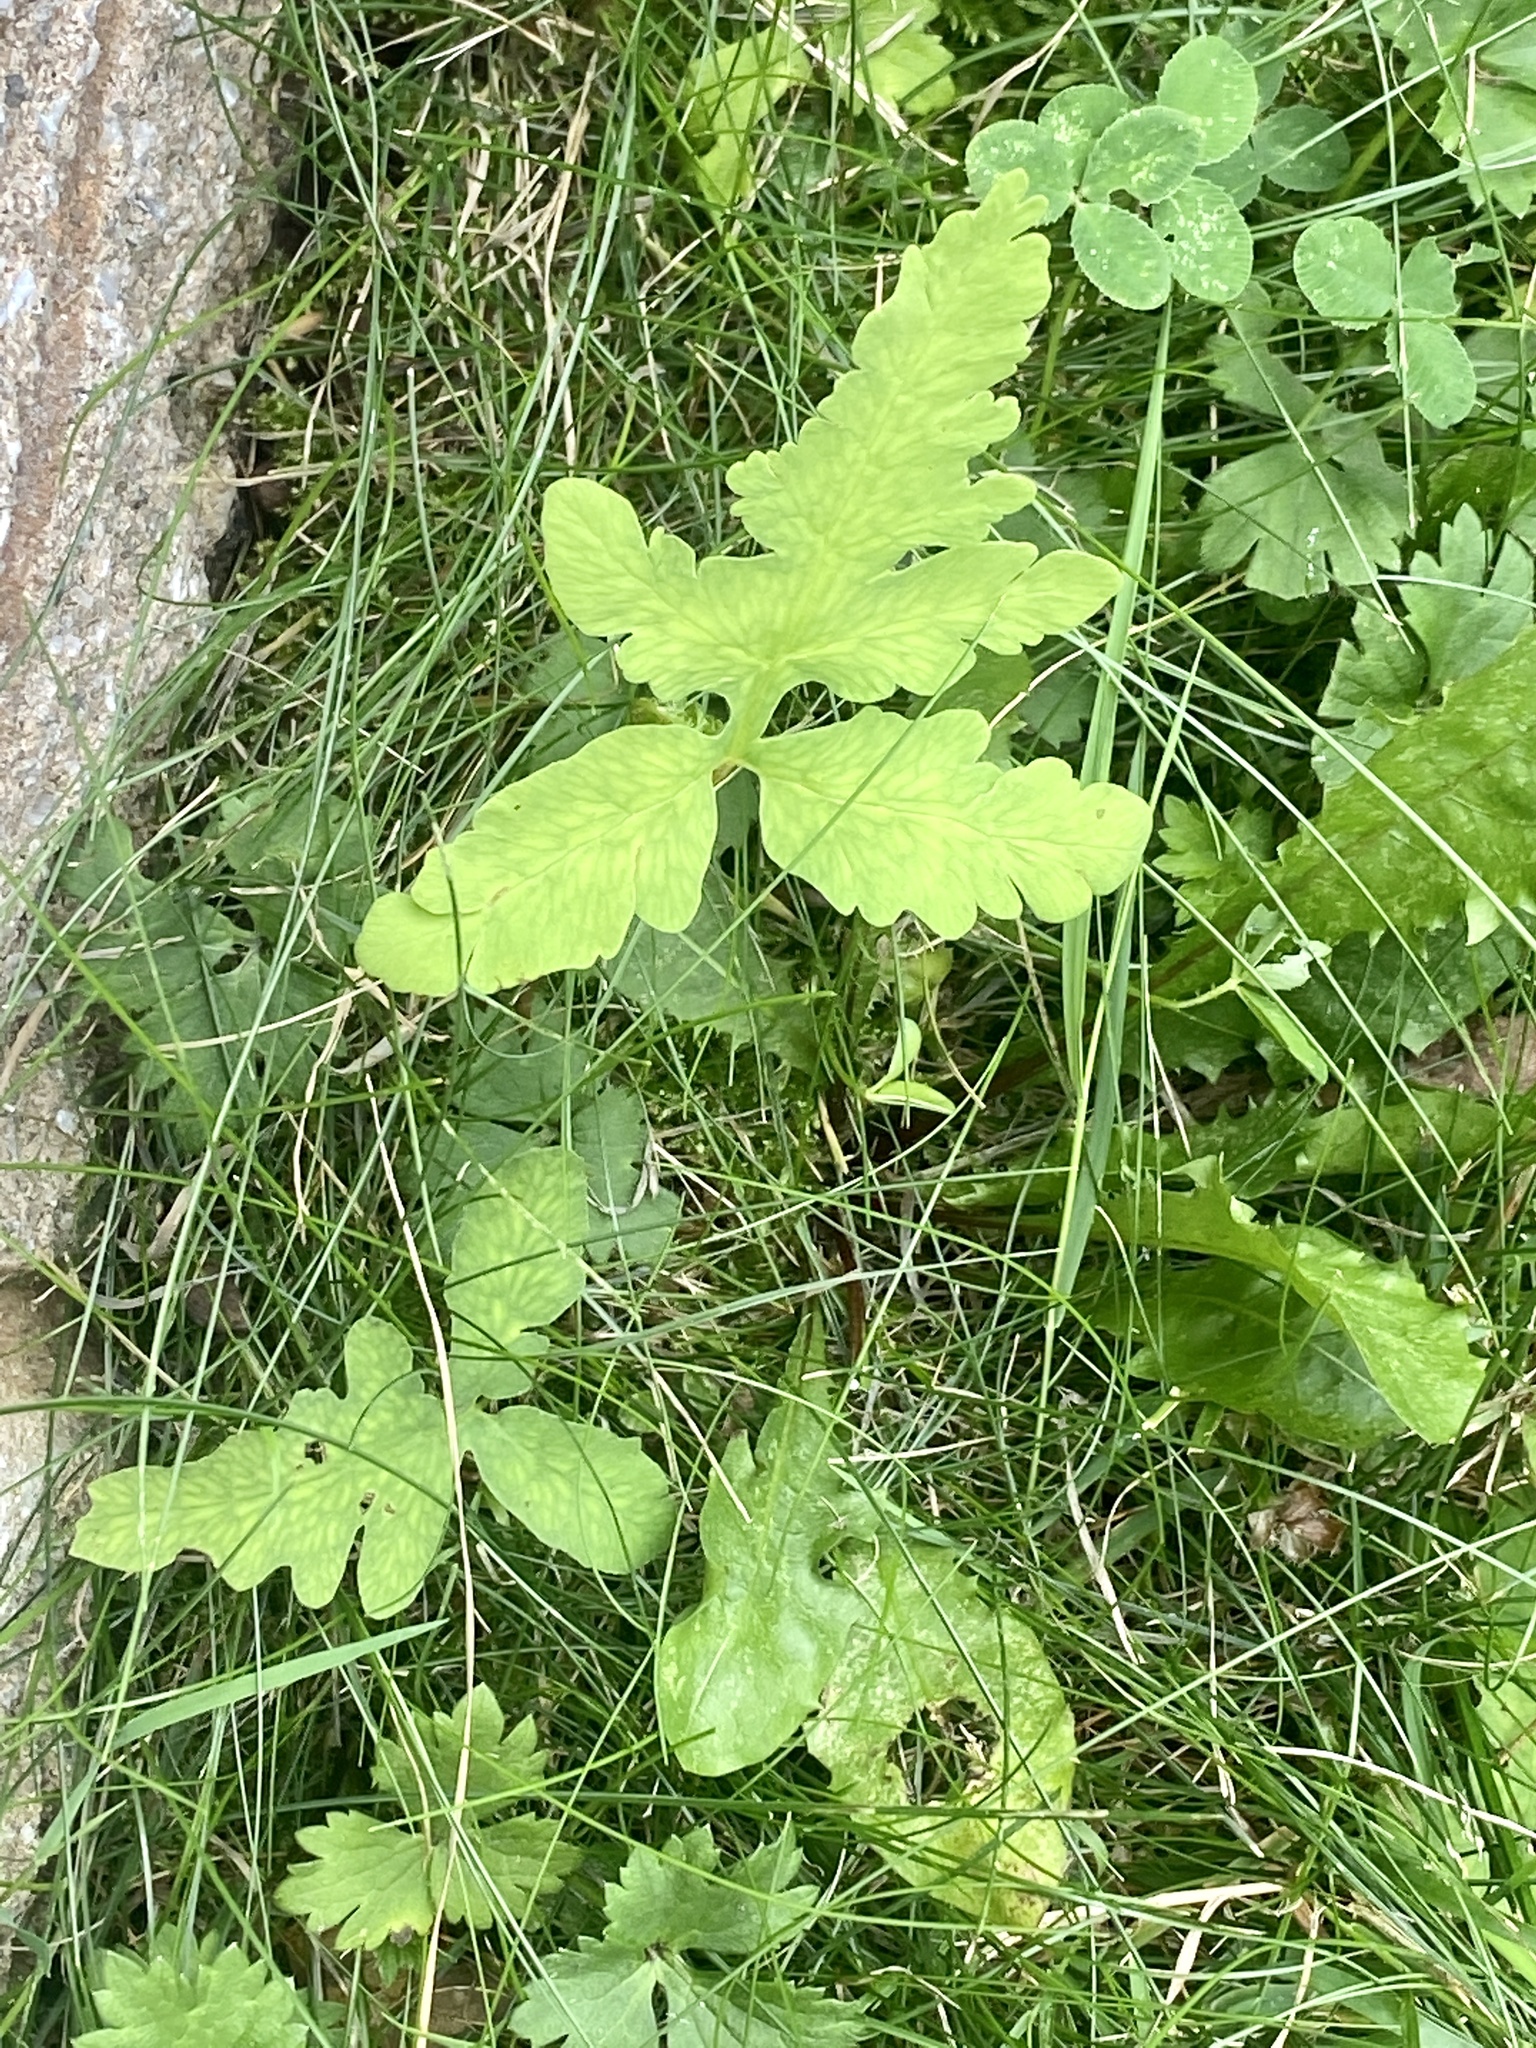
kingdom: Plantae
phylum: Tracheophyta
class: Polypodiopsida
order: Polypodiales
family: Onocleaceae
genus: Onoclea
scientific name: Onoclea sensibilis
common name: Sensitive fern
